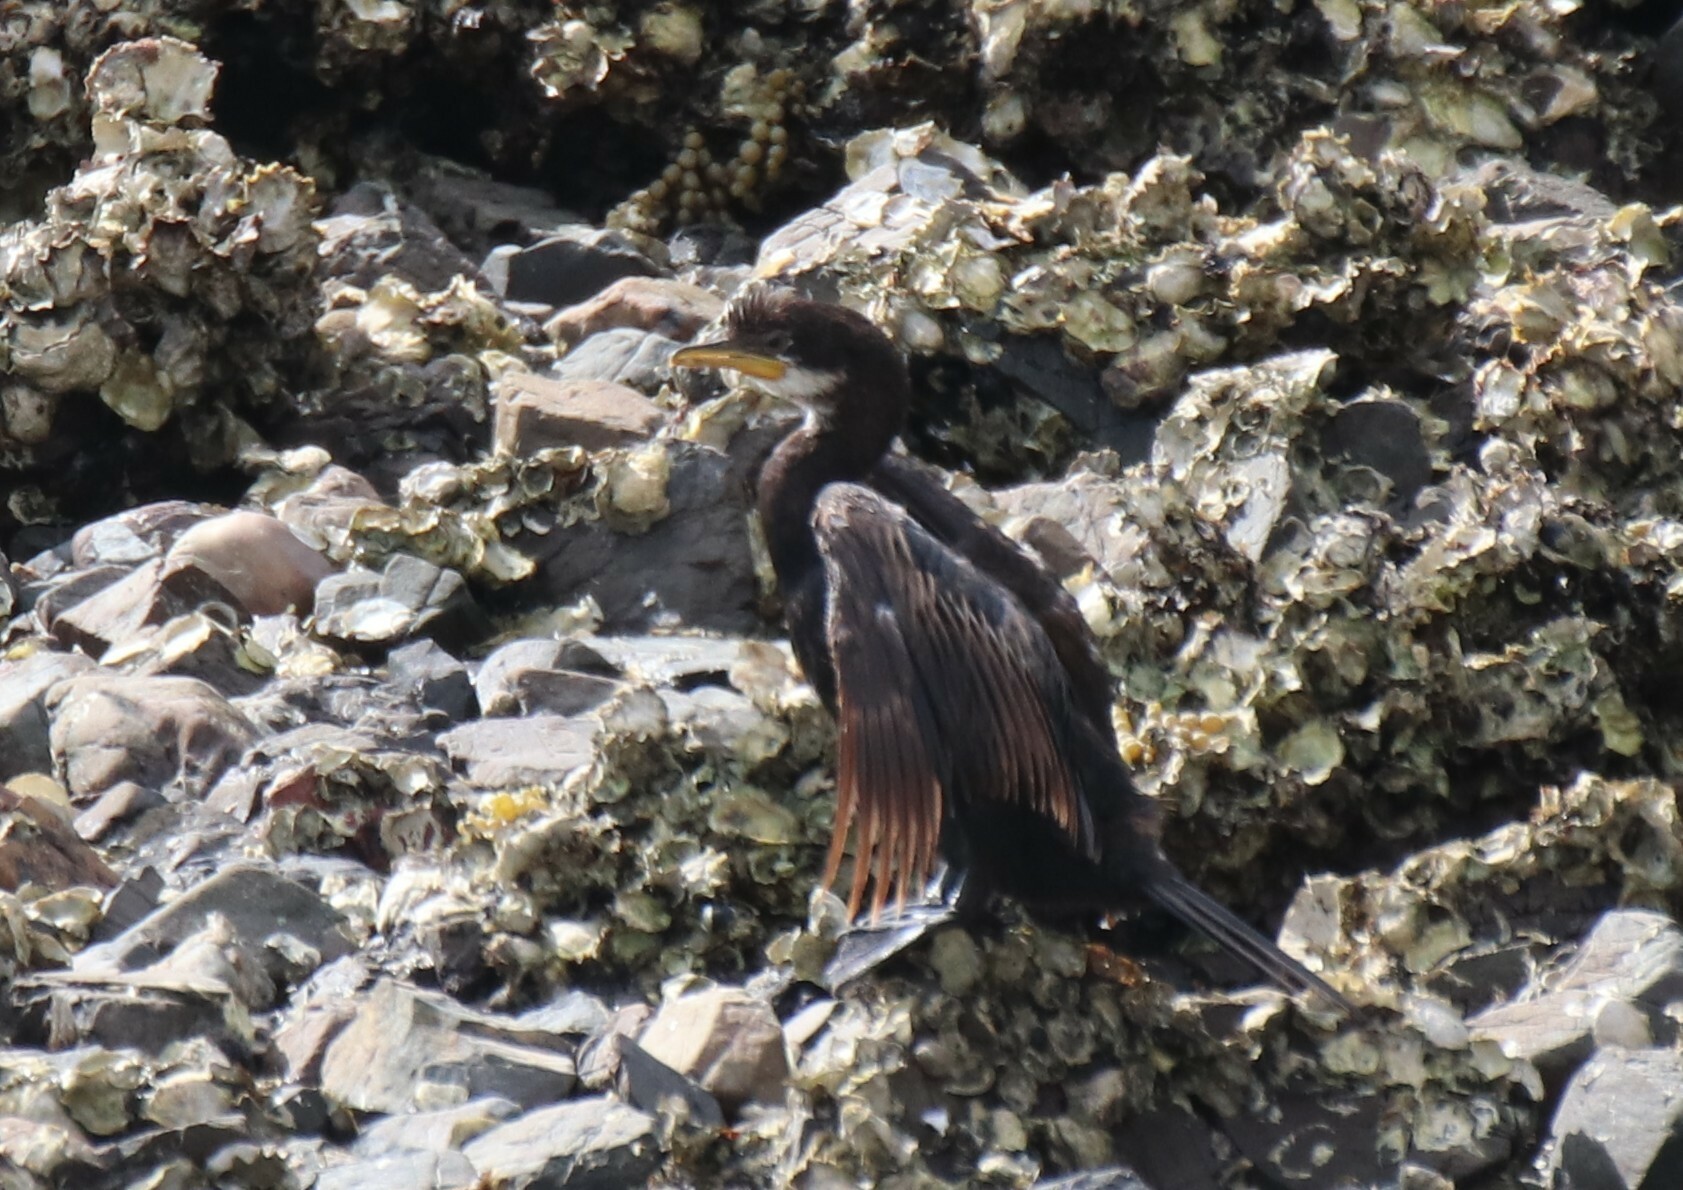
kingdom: Animalia
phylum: Chordata
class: Aves
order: Suliformes
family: Phalacrocoracidae
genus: Microcarbo
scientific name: Microcarbo melanoleucos
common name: Little pied cormorant
